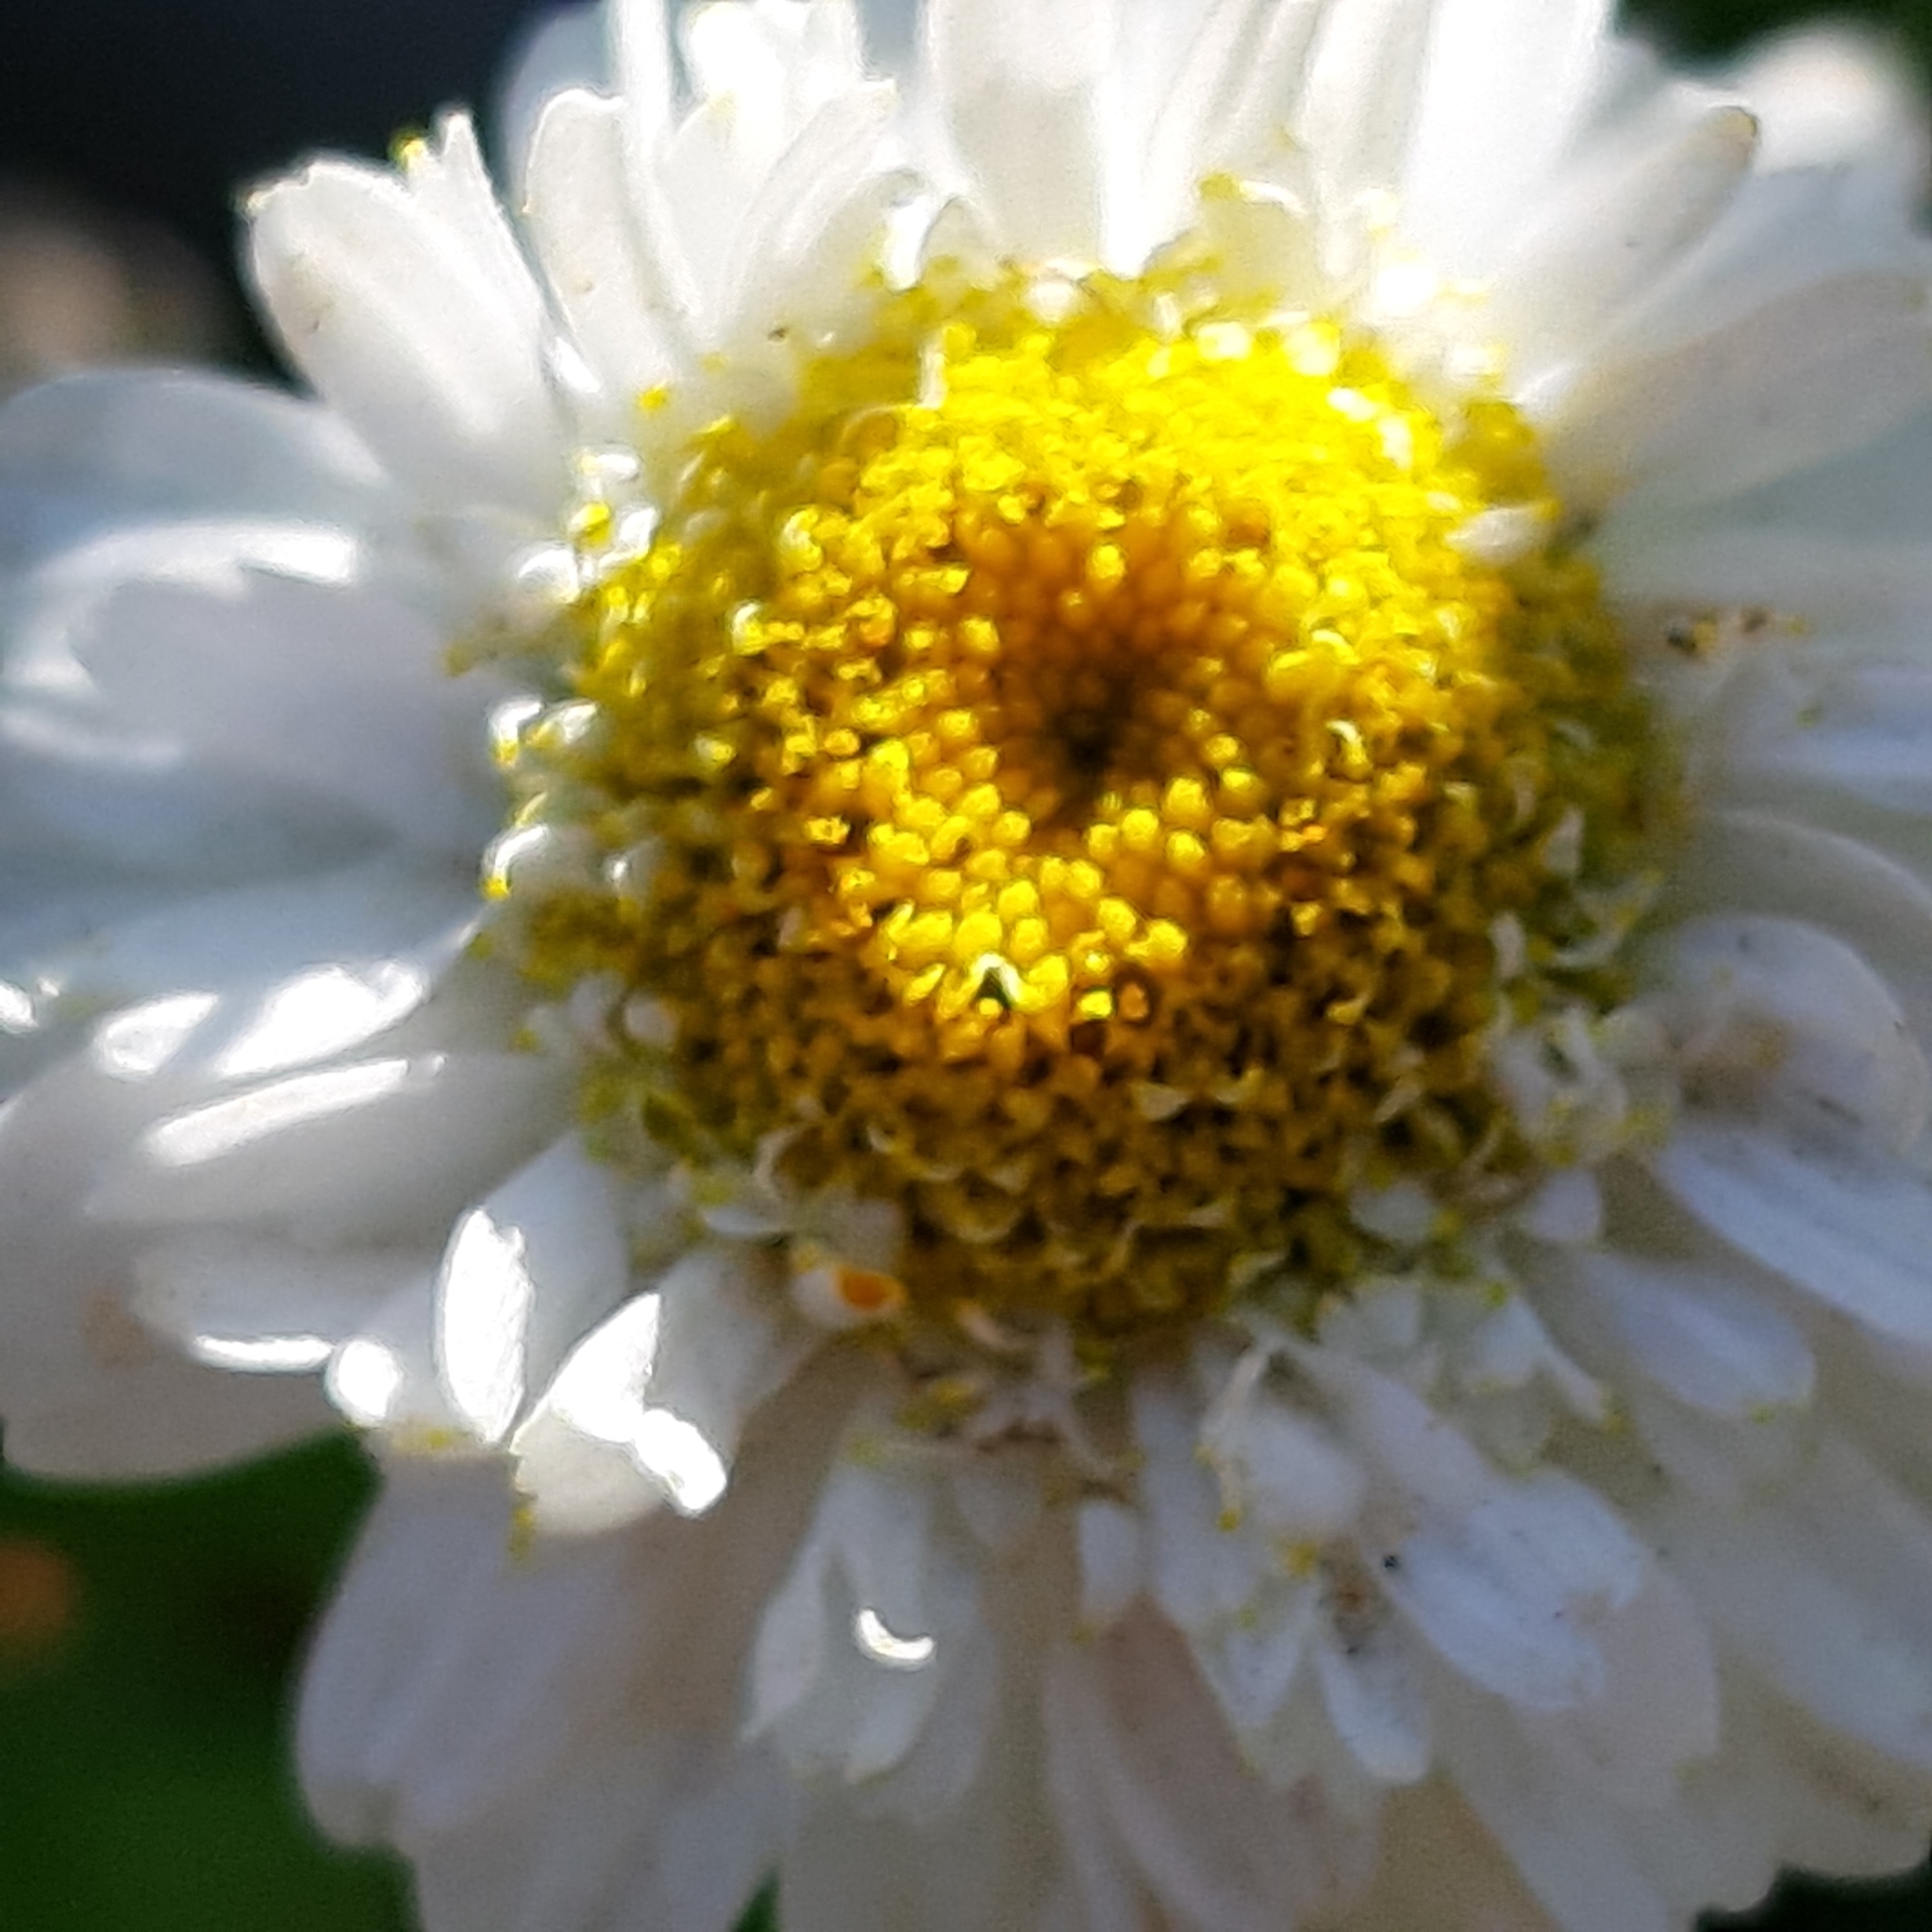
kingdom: Plantae
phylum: Tracheophyta
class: Magnoliopsida
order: Asterales
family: Asteraceae
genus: Tanacetum
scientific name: Tanacetum parthenium
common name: Feverfew
